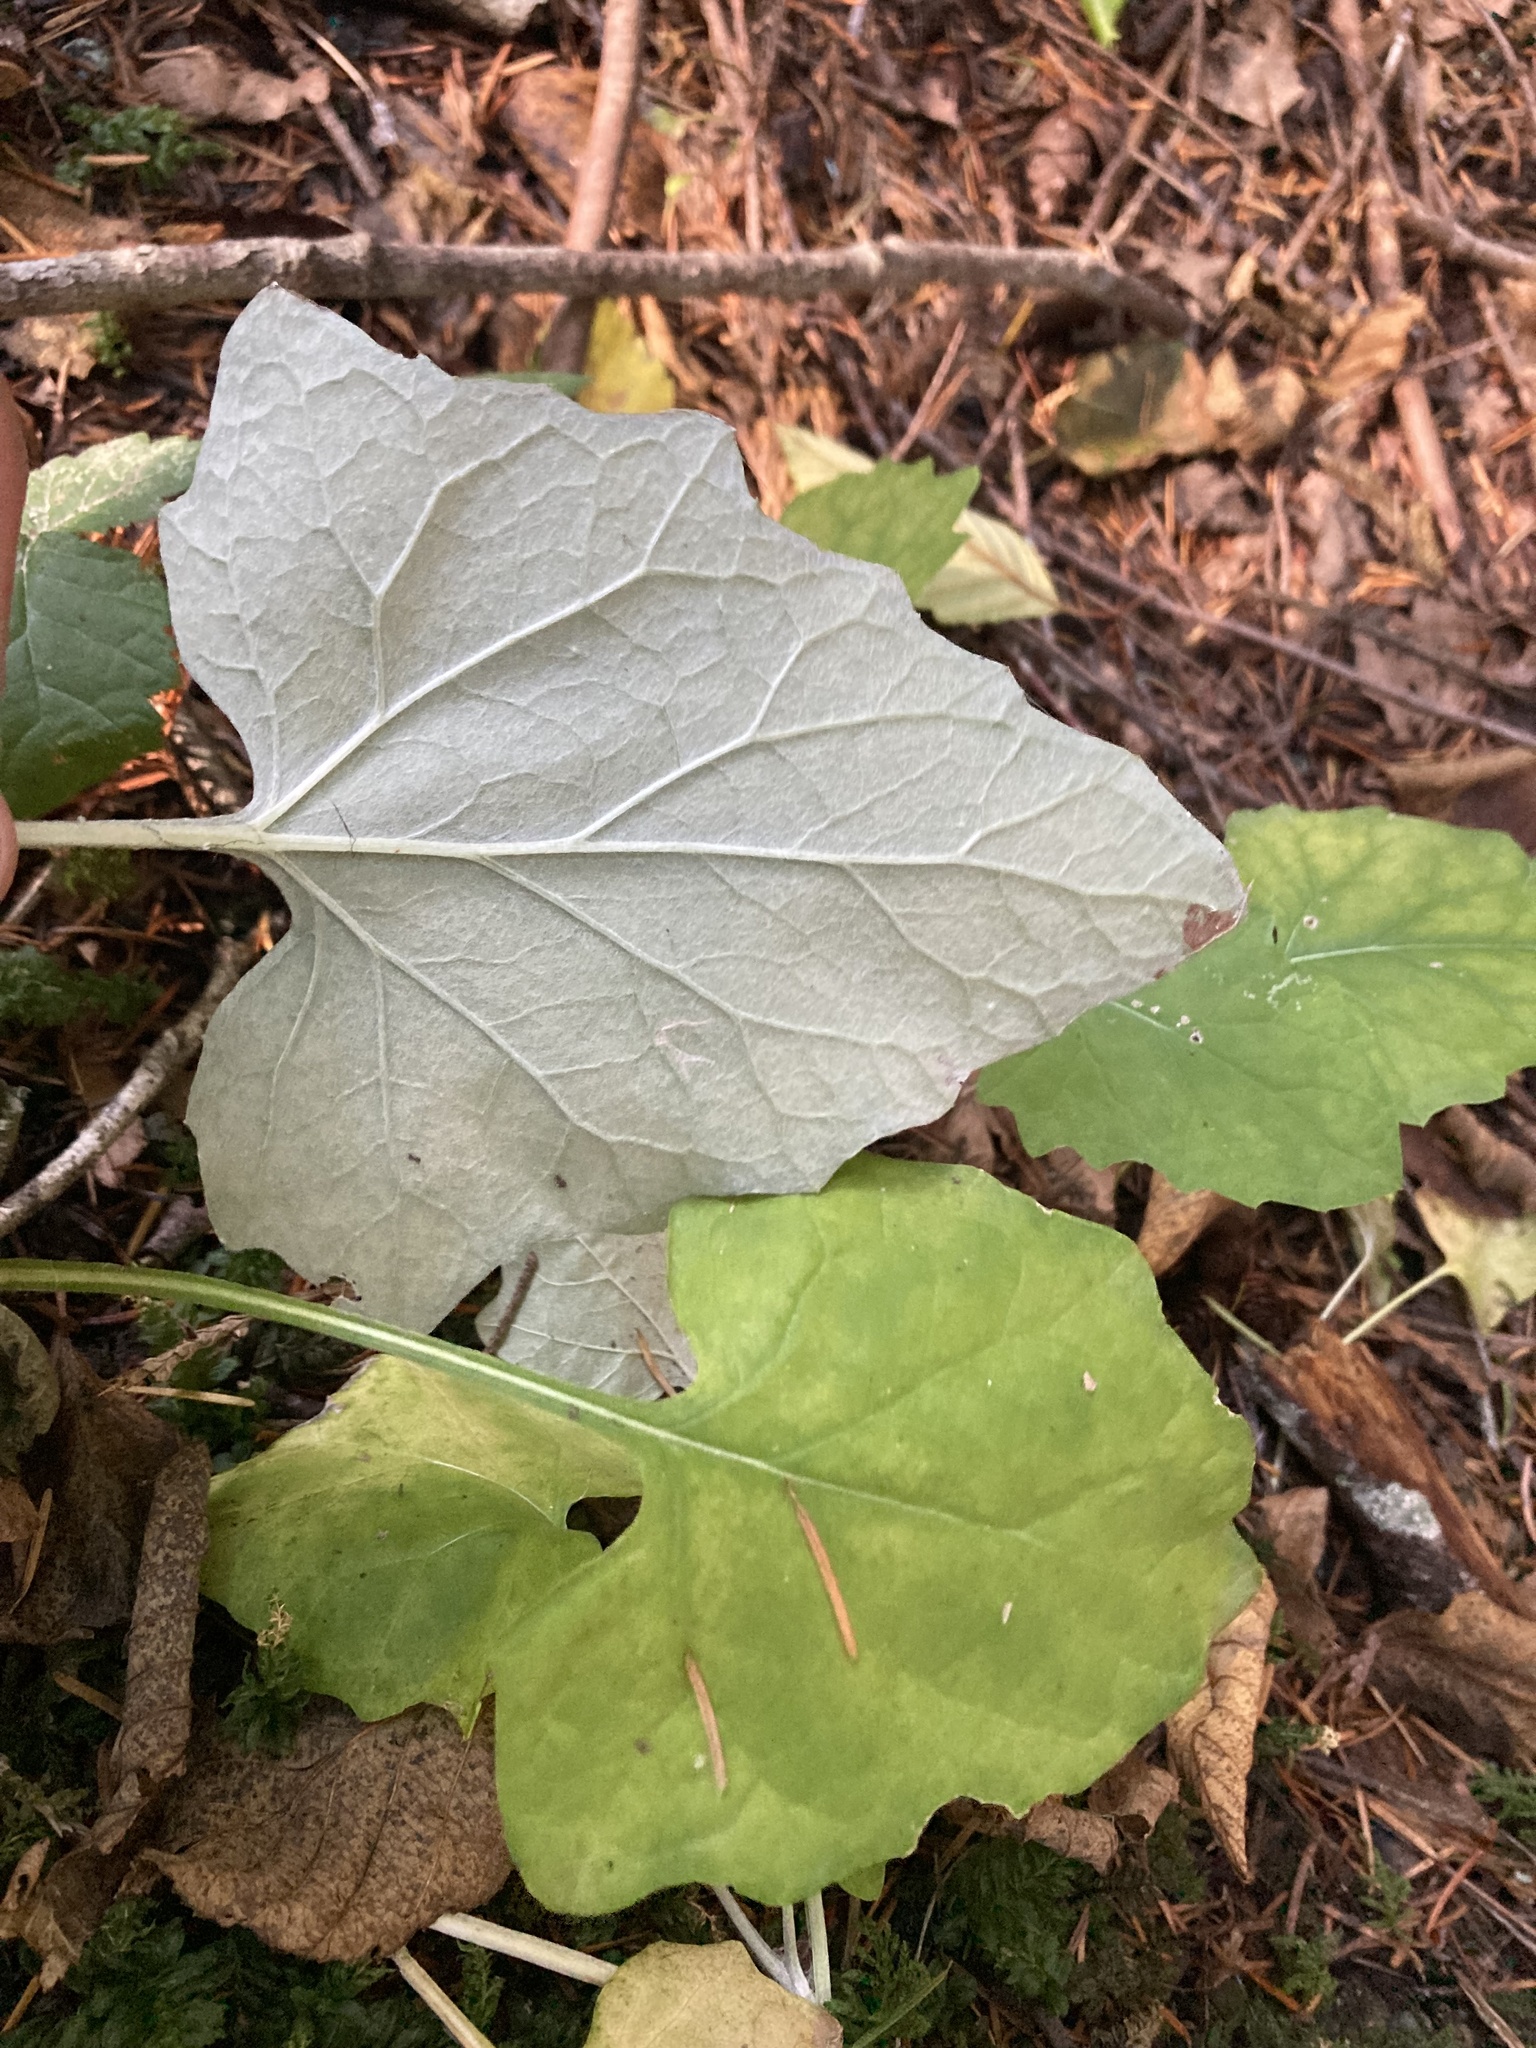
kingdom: Plantae
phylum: Tracheophyta
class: Magnoliopsida
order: Asterales
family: Asteraceae
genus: Adenocaulon
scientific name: Adenocaulon bicolor
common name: Trailplant
